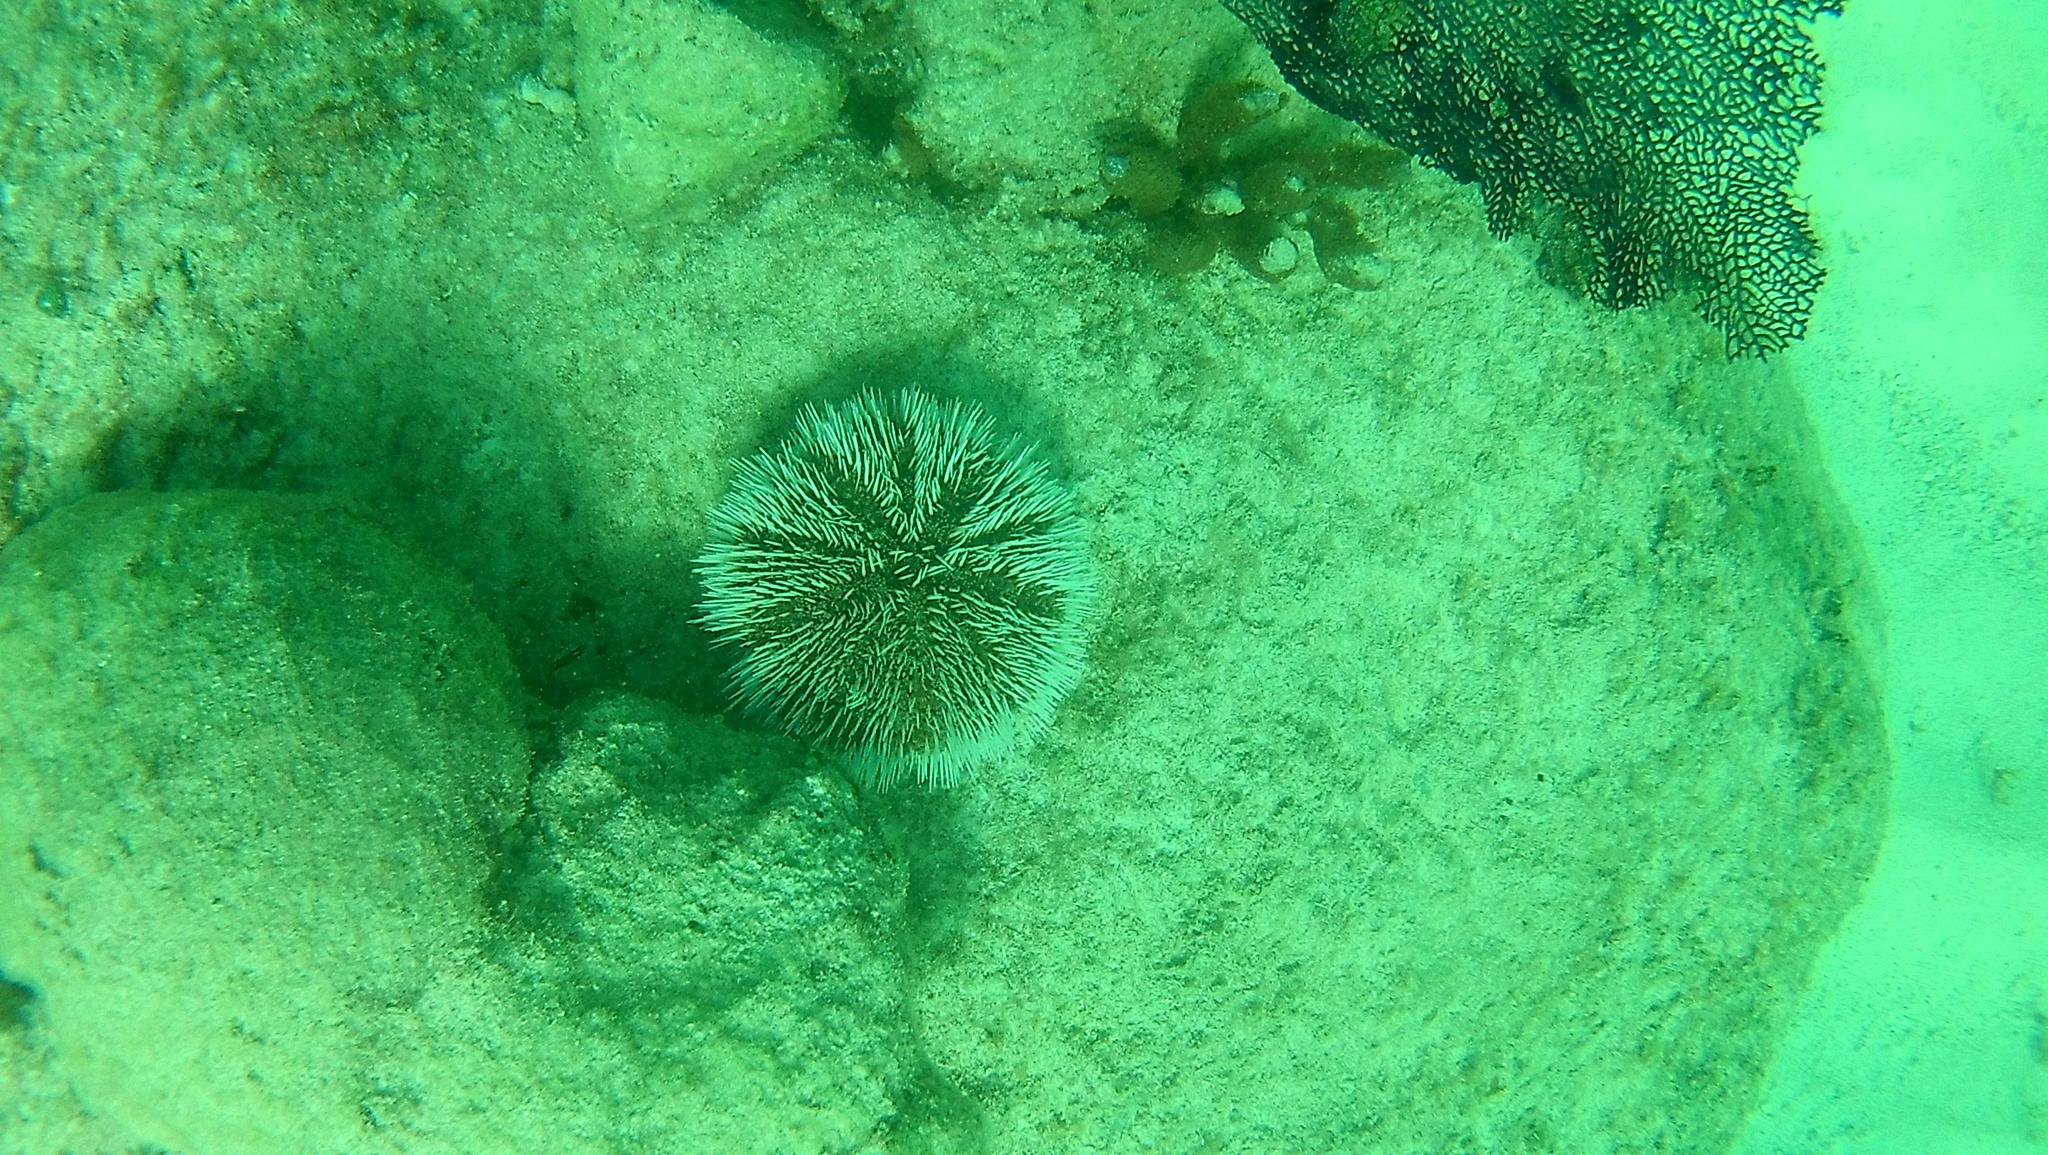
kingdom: Animalia
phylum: Echinodermata
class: Echinoidea
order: Camarodonta
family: Toxopneustidae
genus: Tripneustes
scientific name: Tripneustes ventricosus
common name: West indian sea egg
